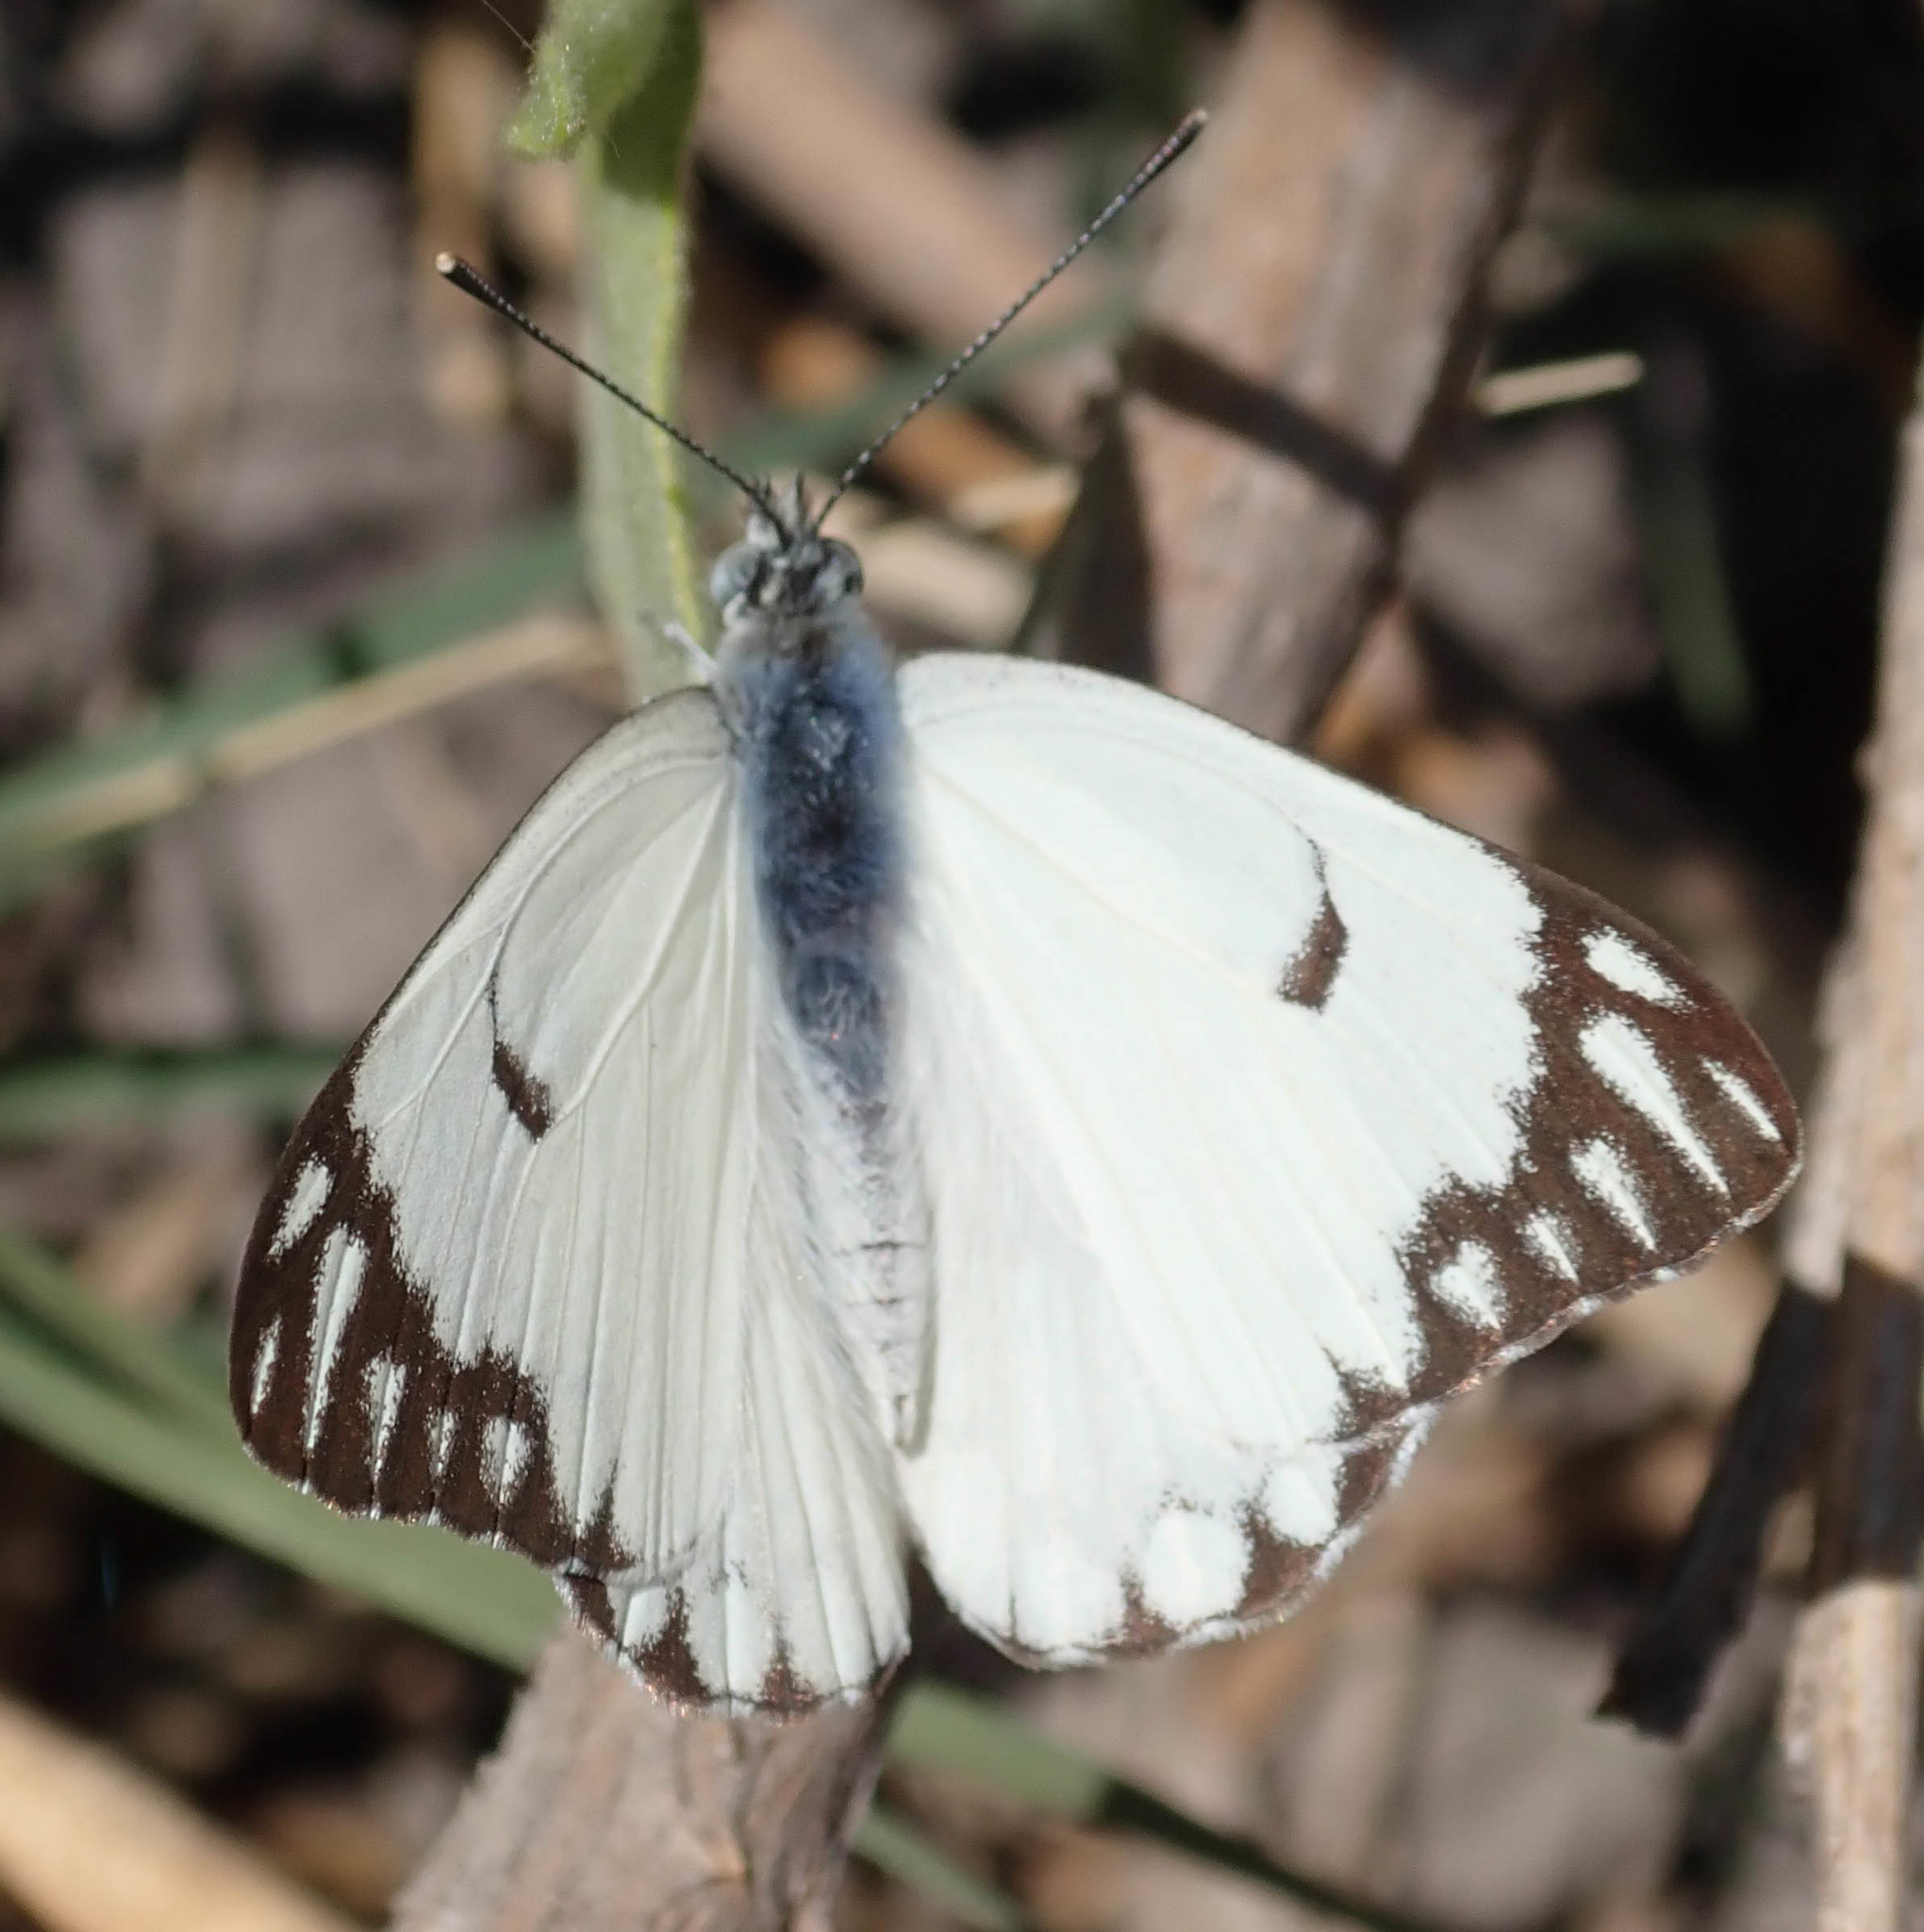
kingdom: Animalia
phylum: Arthropoda
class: Insecta
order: Lepidoptera
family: Pieridae
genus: Belenois
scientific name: Belenois aurota
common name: Brown-veined white
